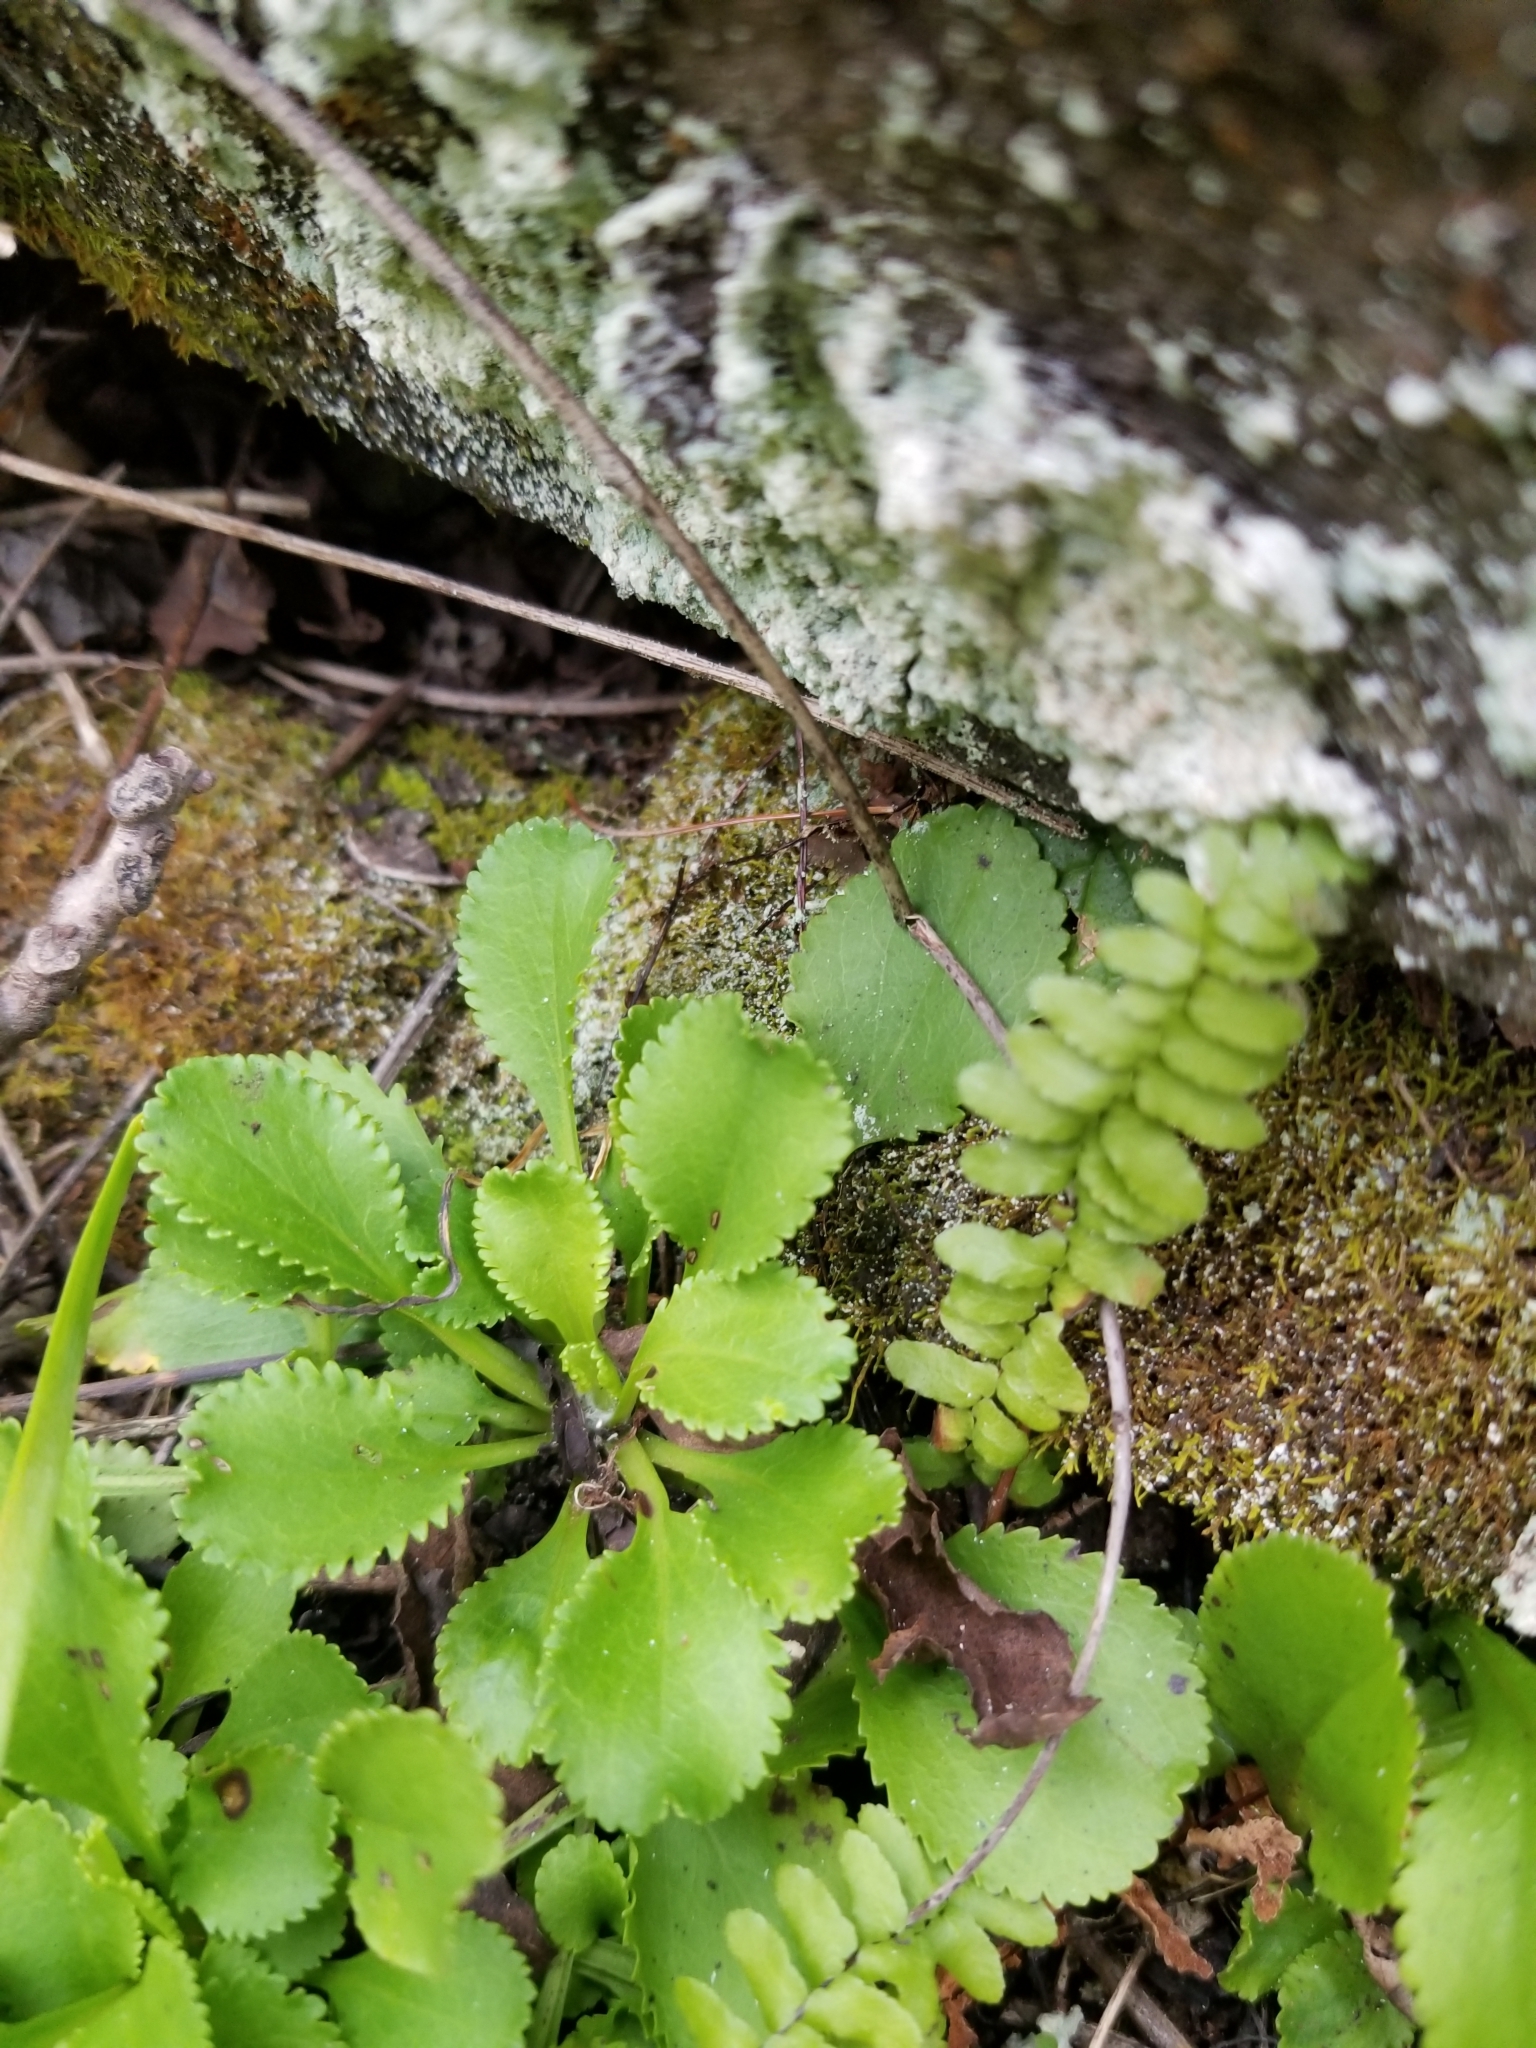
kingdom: Plantae
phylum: Tracheophyta
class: Magnoliopsida
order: Asterales
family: Asteraceae
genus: Packera
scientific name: Packera obovata
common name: Round-leaf ragwort
